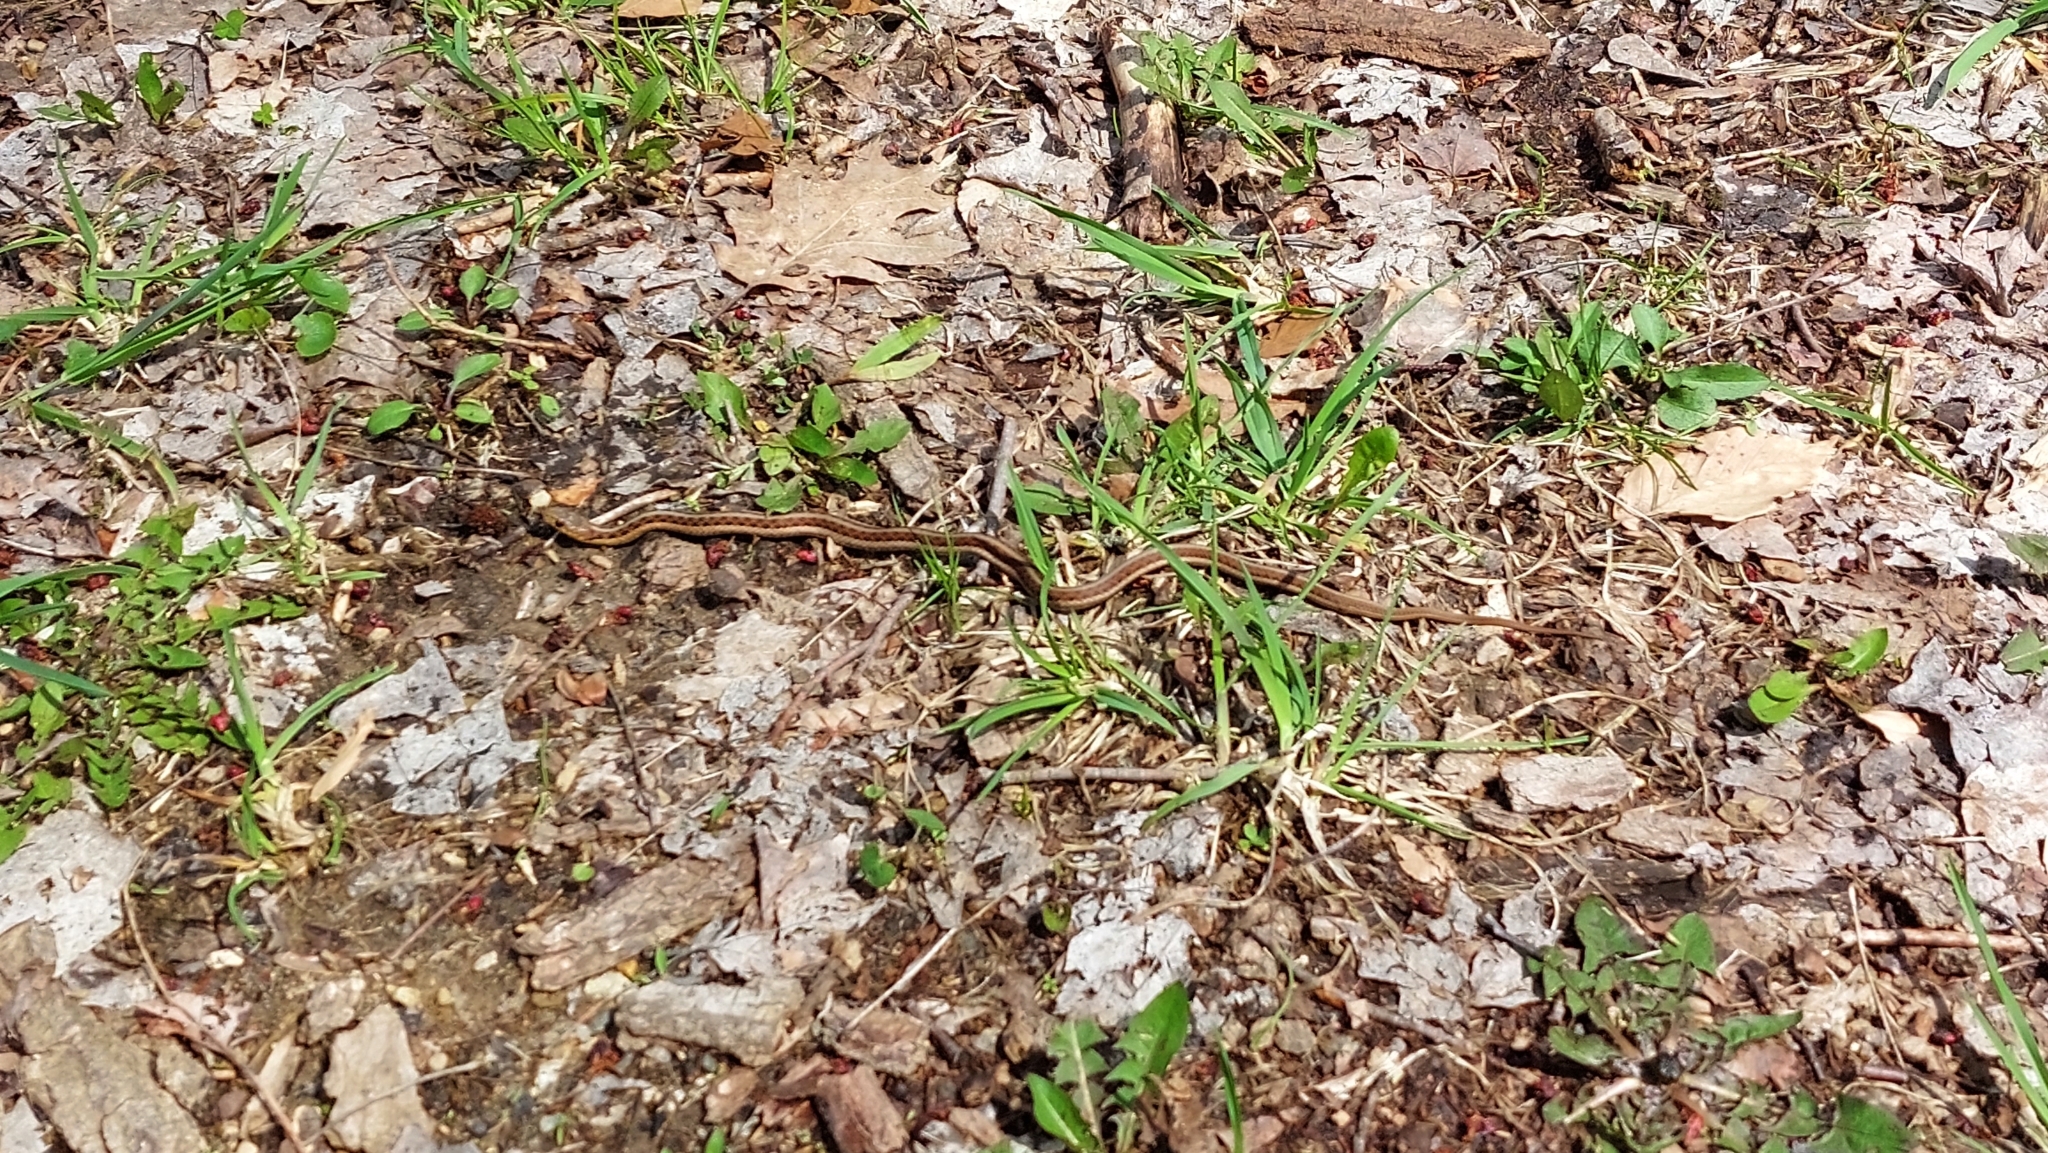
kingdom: Animalia
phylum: Chordata
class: Squamata
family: Colubridae
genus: Thamnophis
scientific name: Thamnophis sirtalis
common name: Common garter snake
